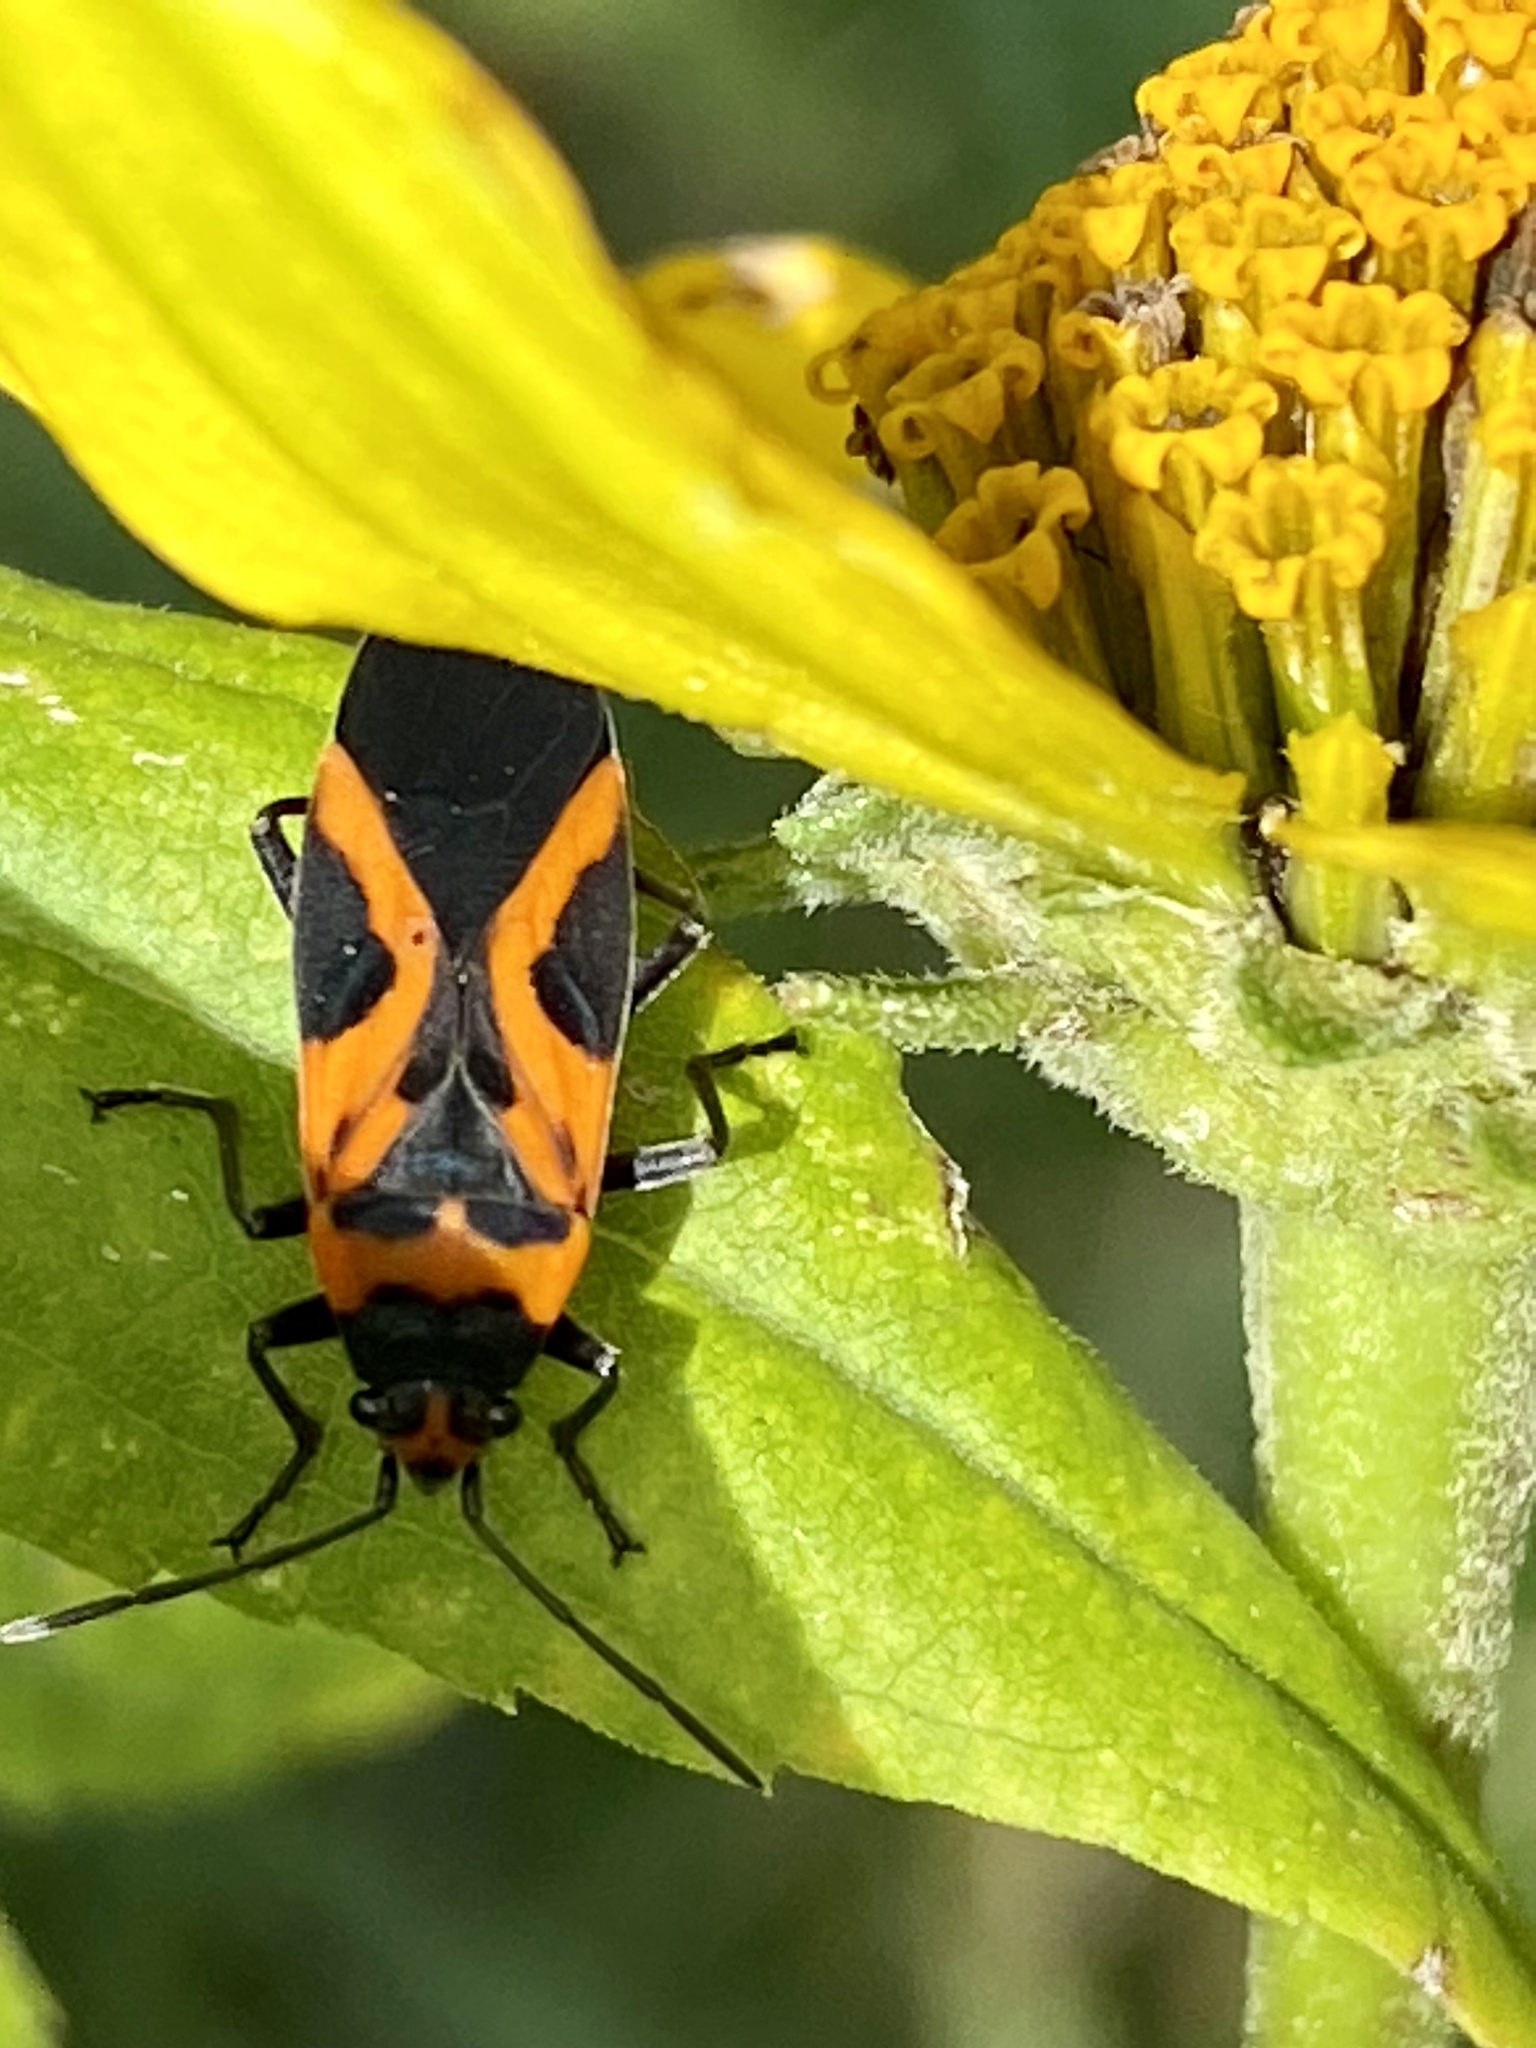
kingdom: Animalia
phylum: Arthropoda
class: Insecta
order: Hemiptera
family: Lygaeidae
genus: Lygaeus
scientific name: Lygaeus turcicus
